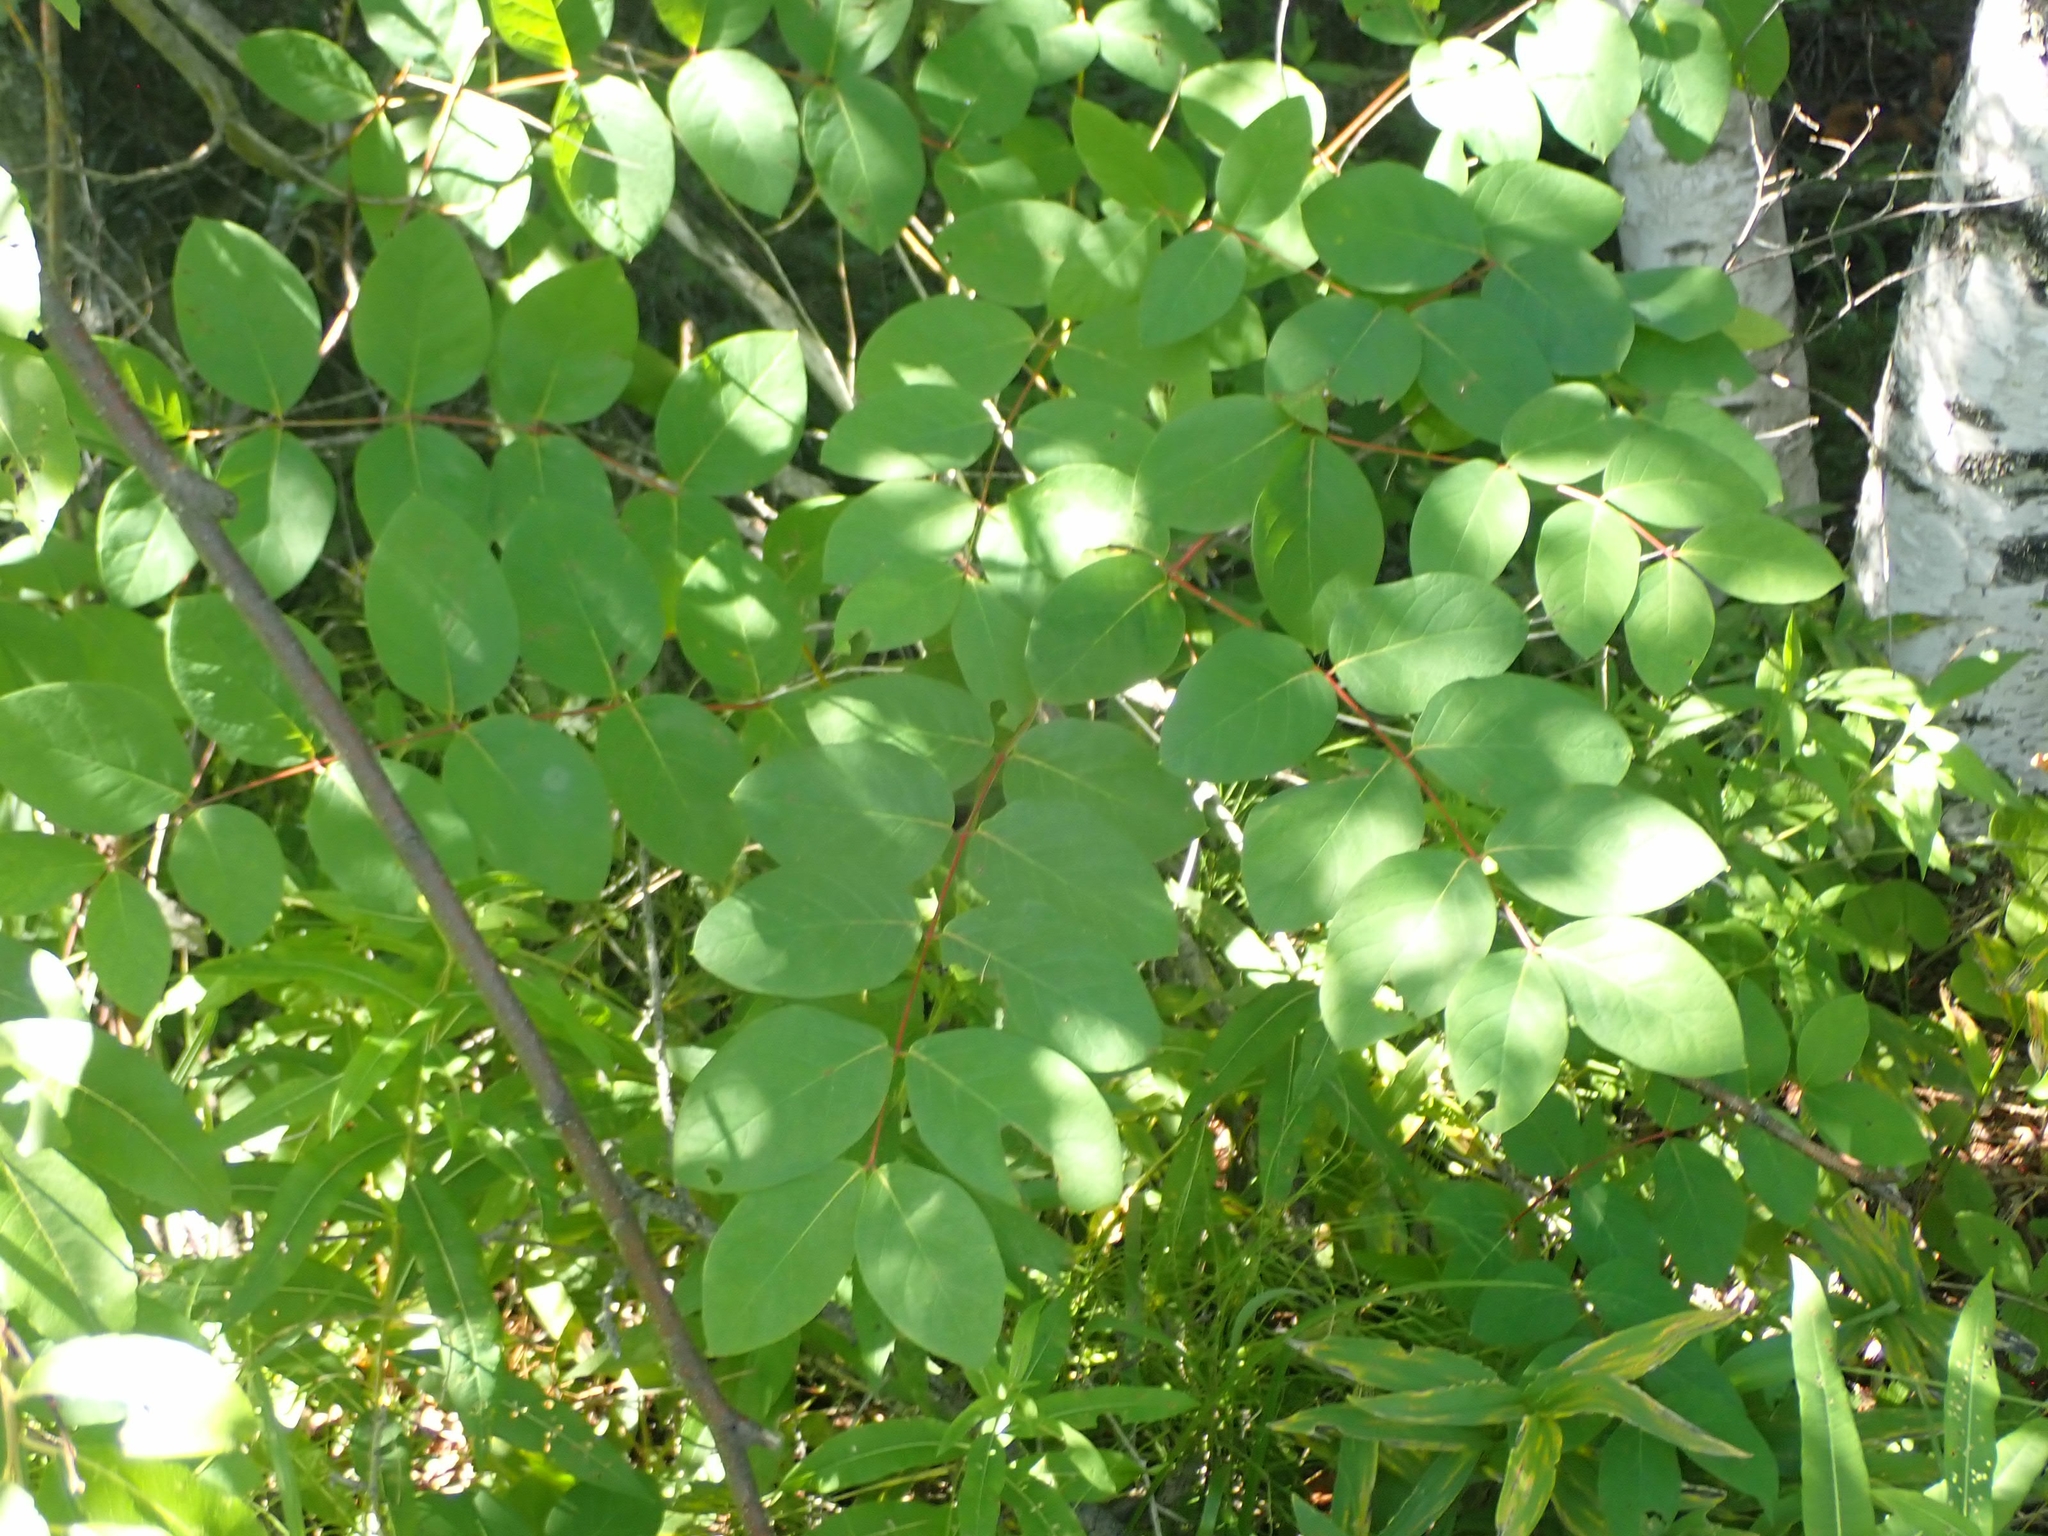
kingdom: Plantae
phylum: Tracheophyta
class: Magnoliopsida
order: Gentianales
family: Apocynaceae
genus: Apocynum
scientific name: Apocynum androsaemifolium
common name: Spreading dogbane
